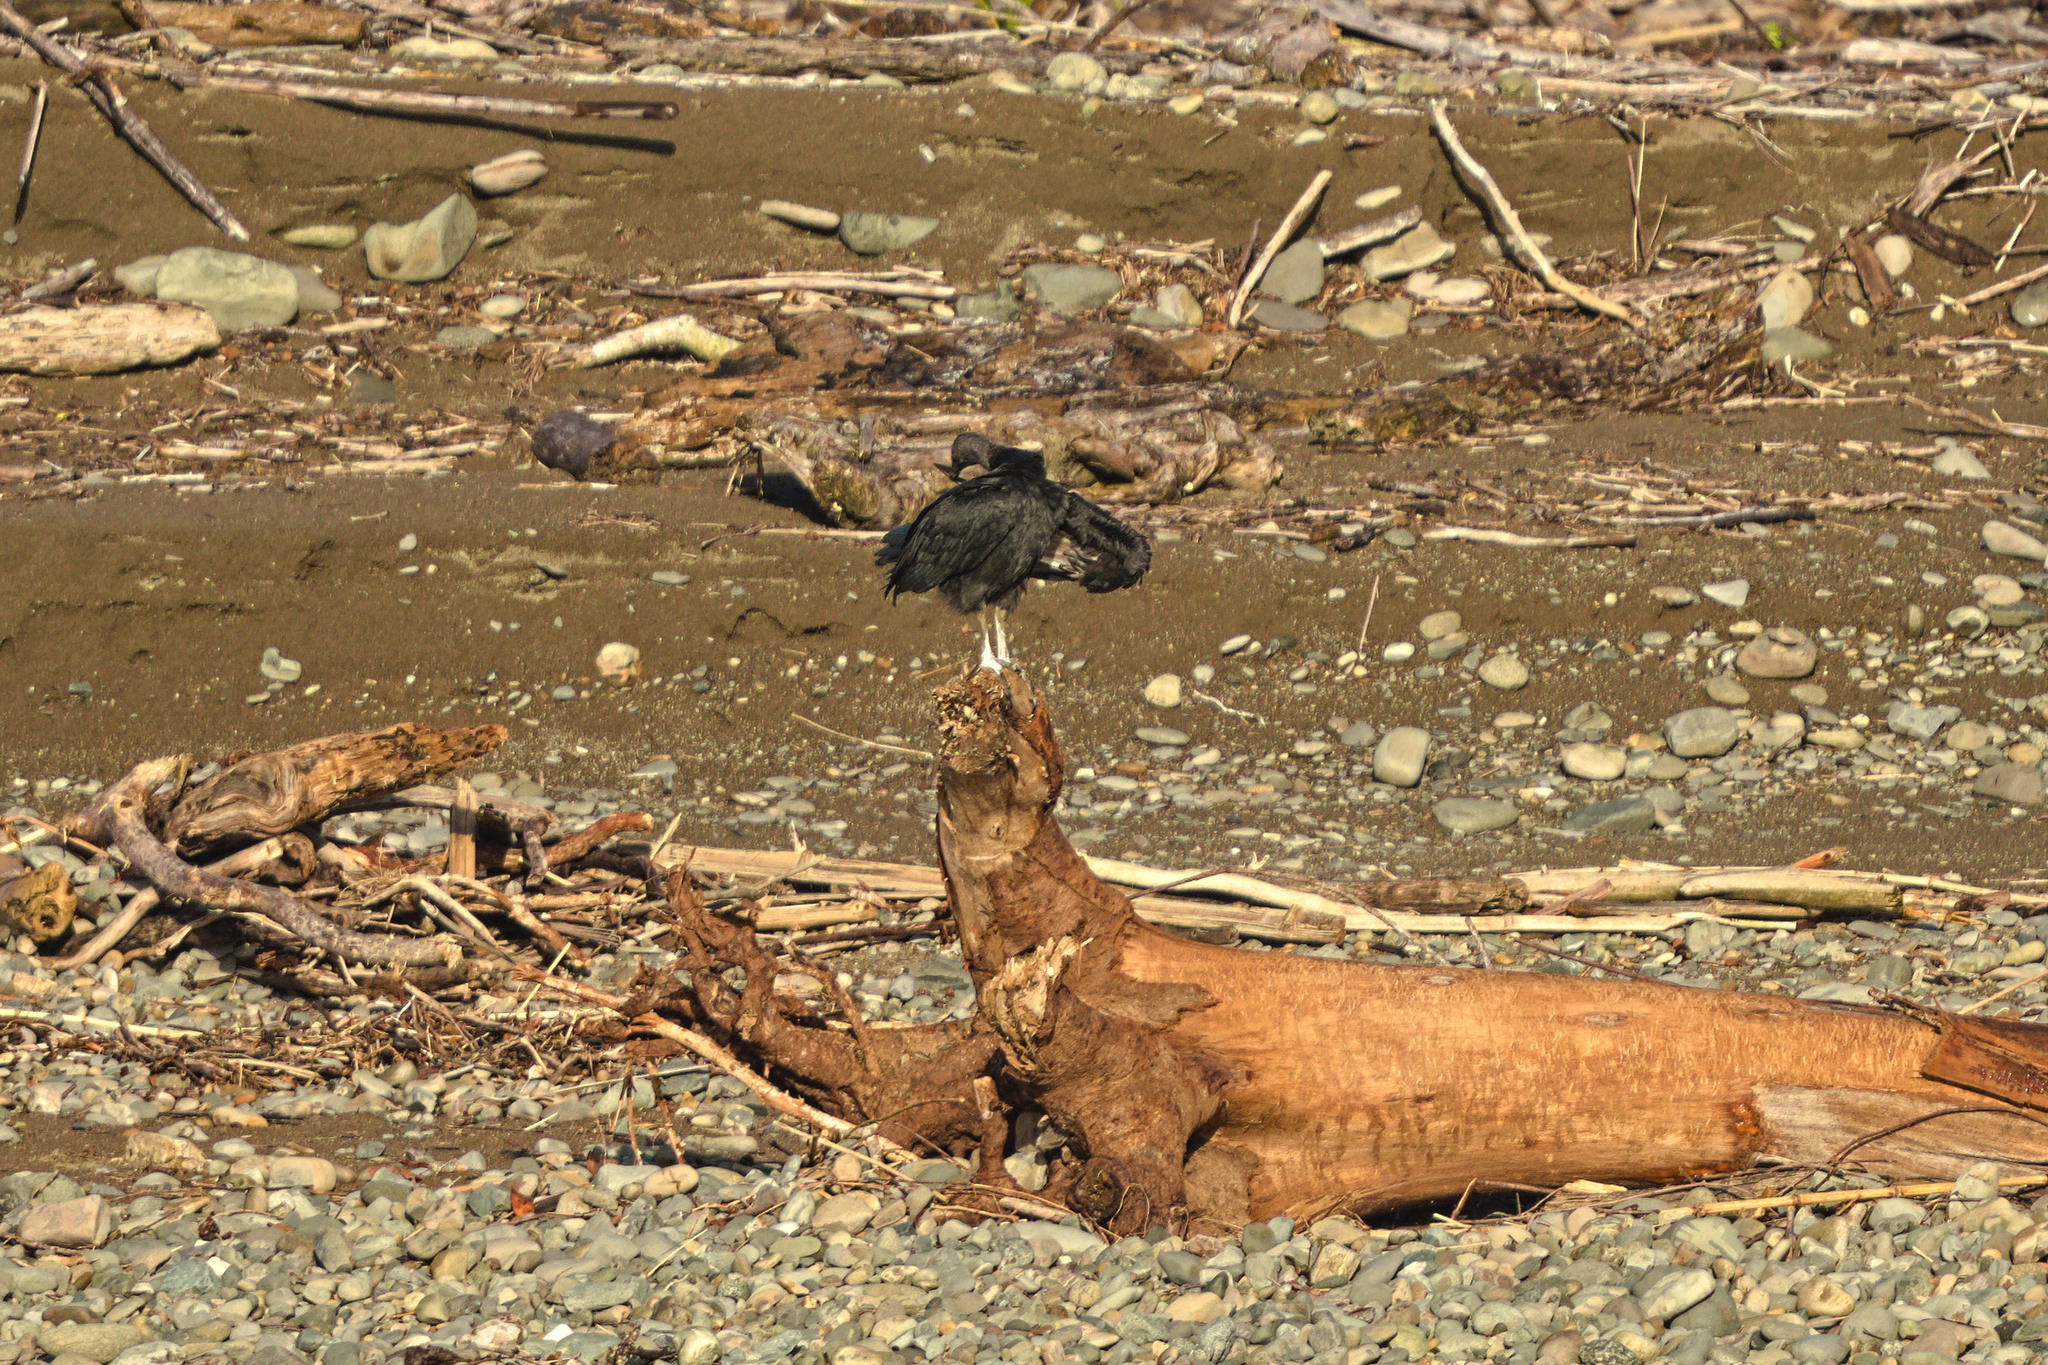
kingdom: Animalia
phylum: Chordata
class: Aves
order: Accipitriformes
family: Cathartidae
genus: Coragyps
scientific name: Coragyps atratus
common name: Black vulture
